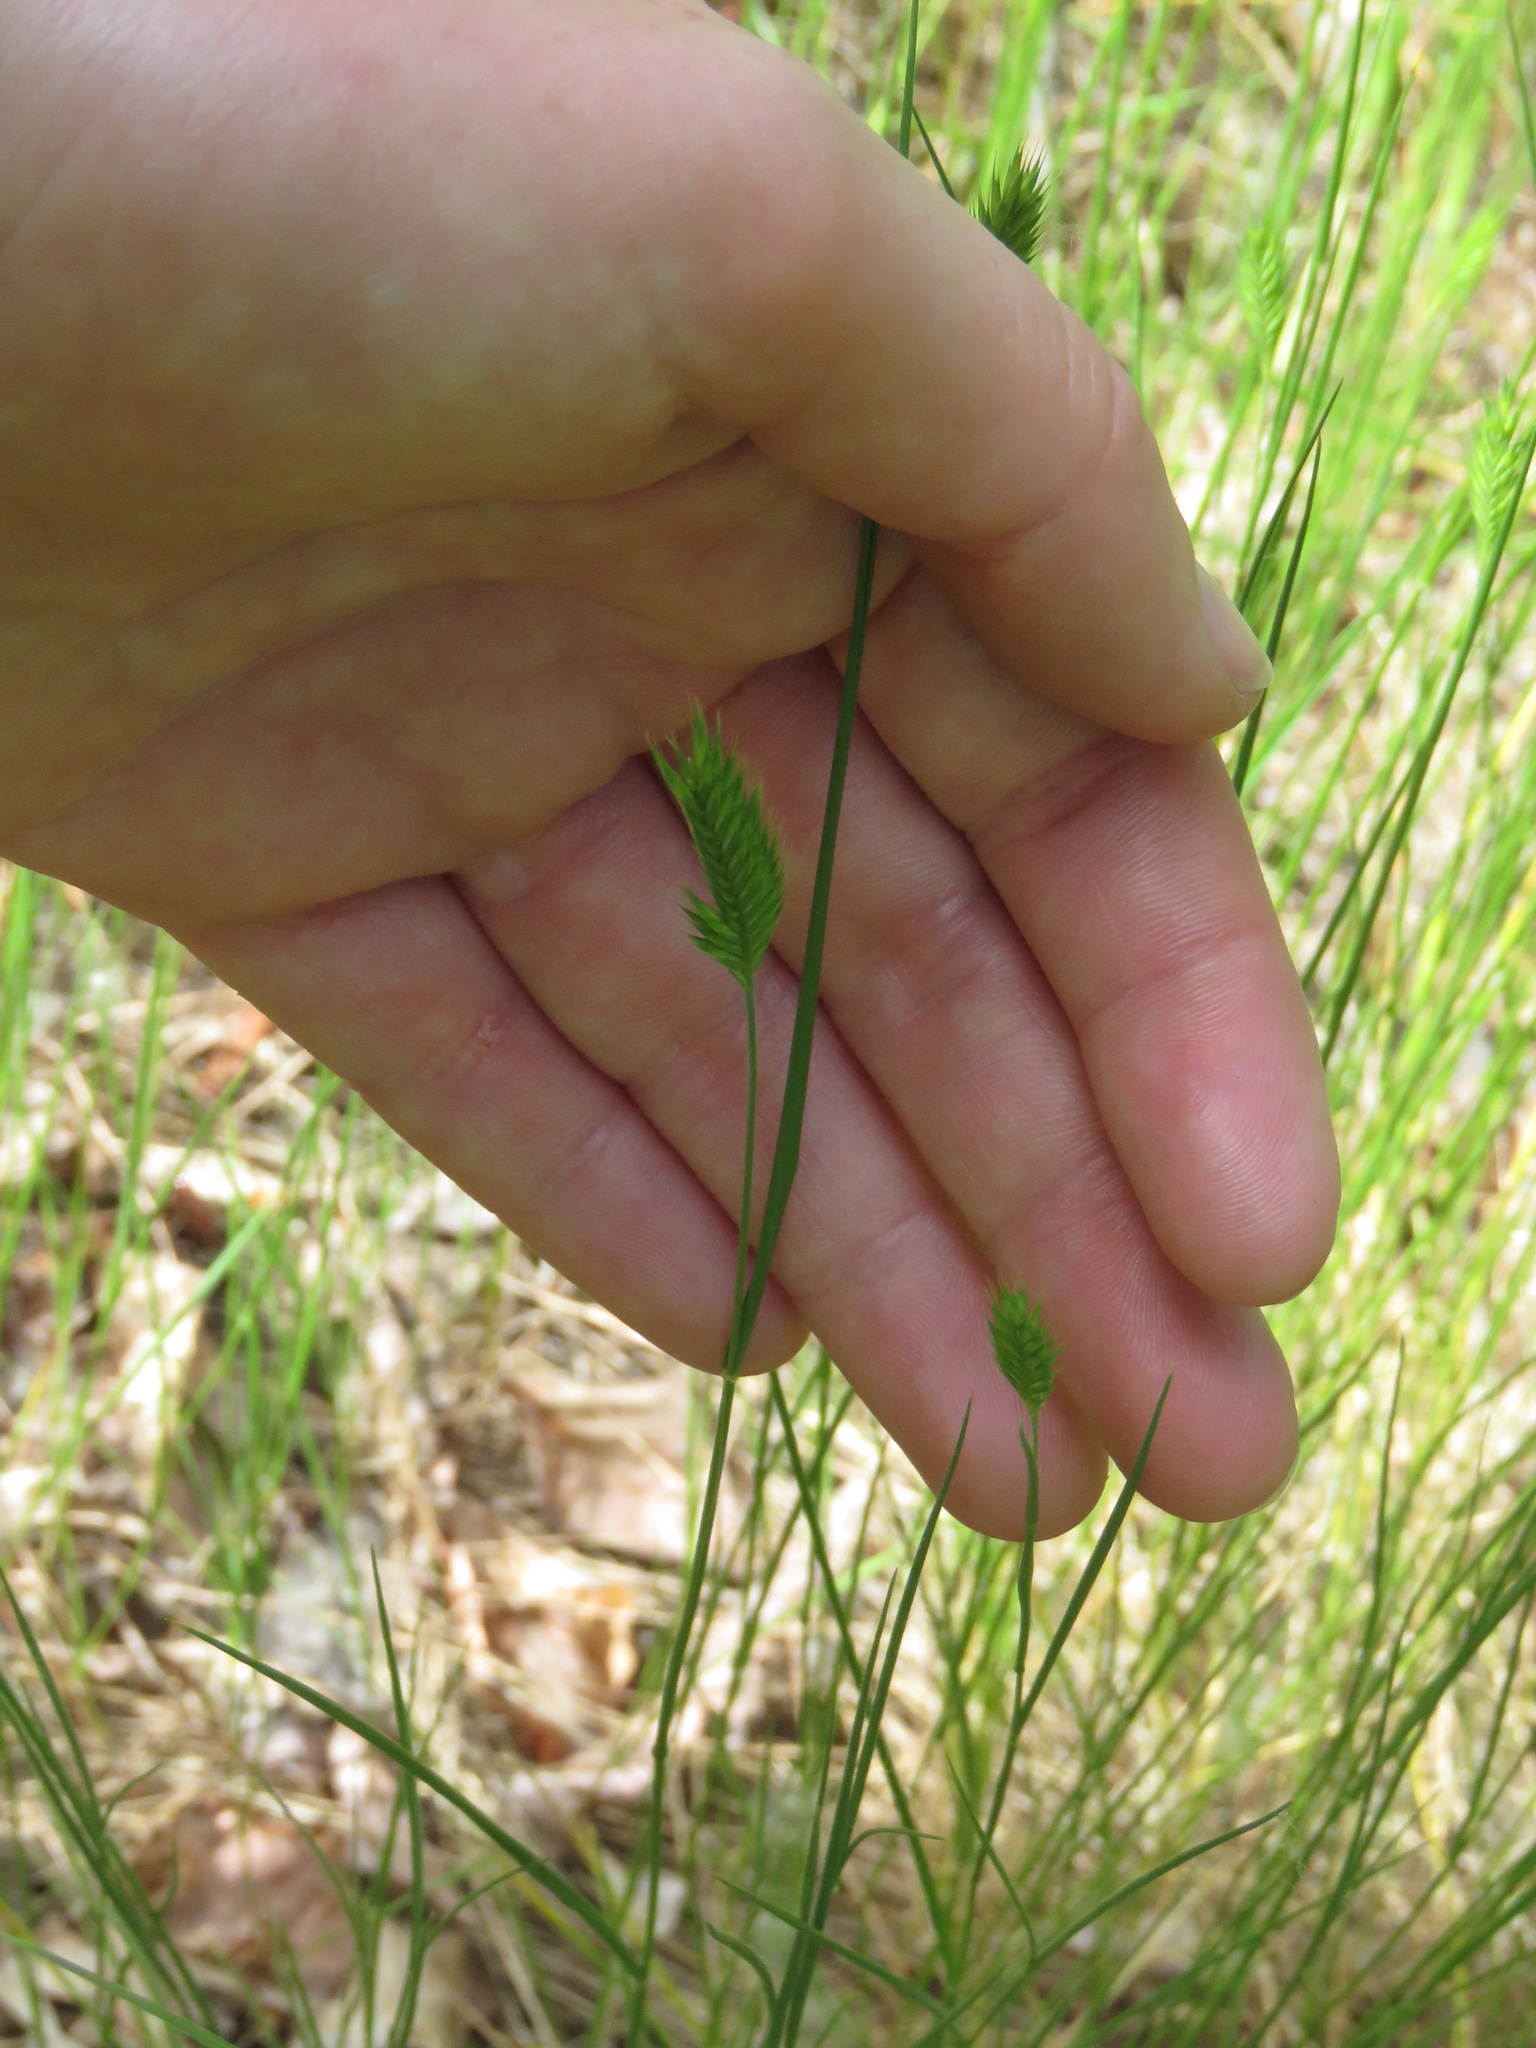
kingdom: Plantae
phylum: Tracheophyta
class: Liliopsida
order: Poales
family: Poaceae
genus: Agropyron
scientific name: Agropyron cristatum
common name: Crested wheatgrass
